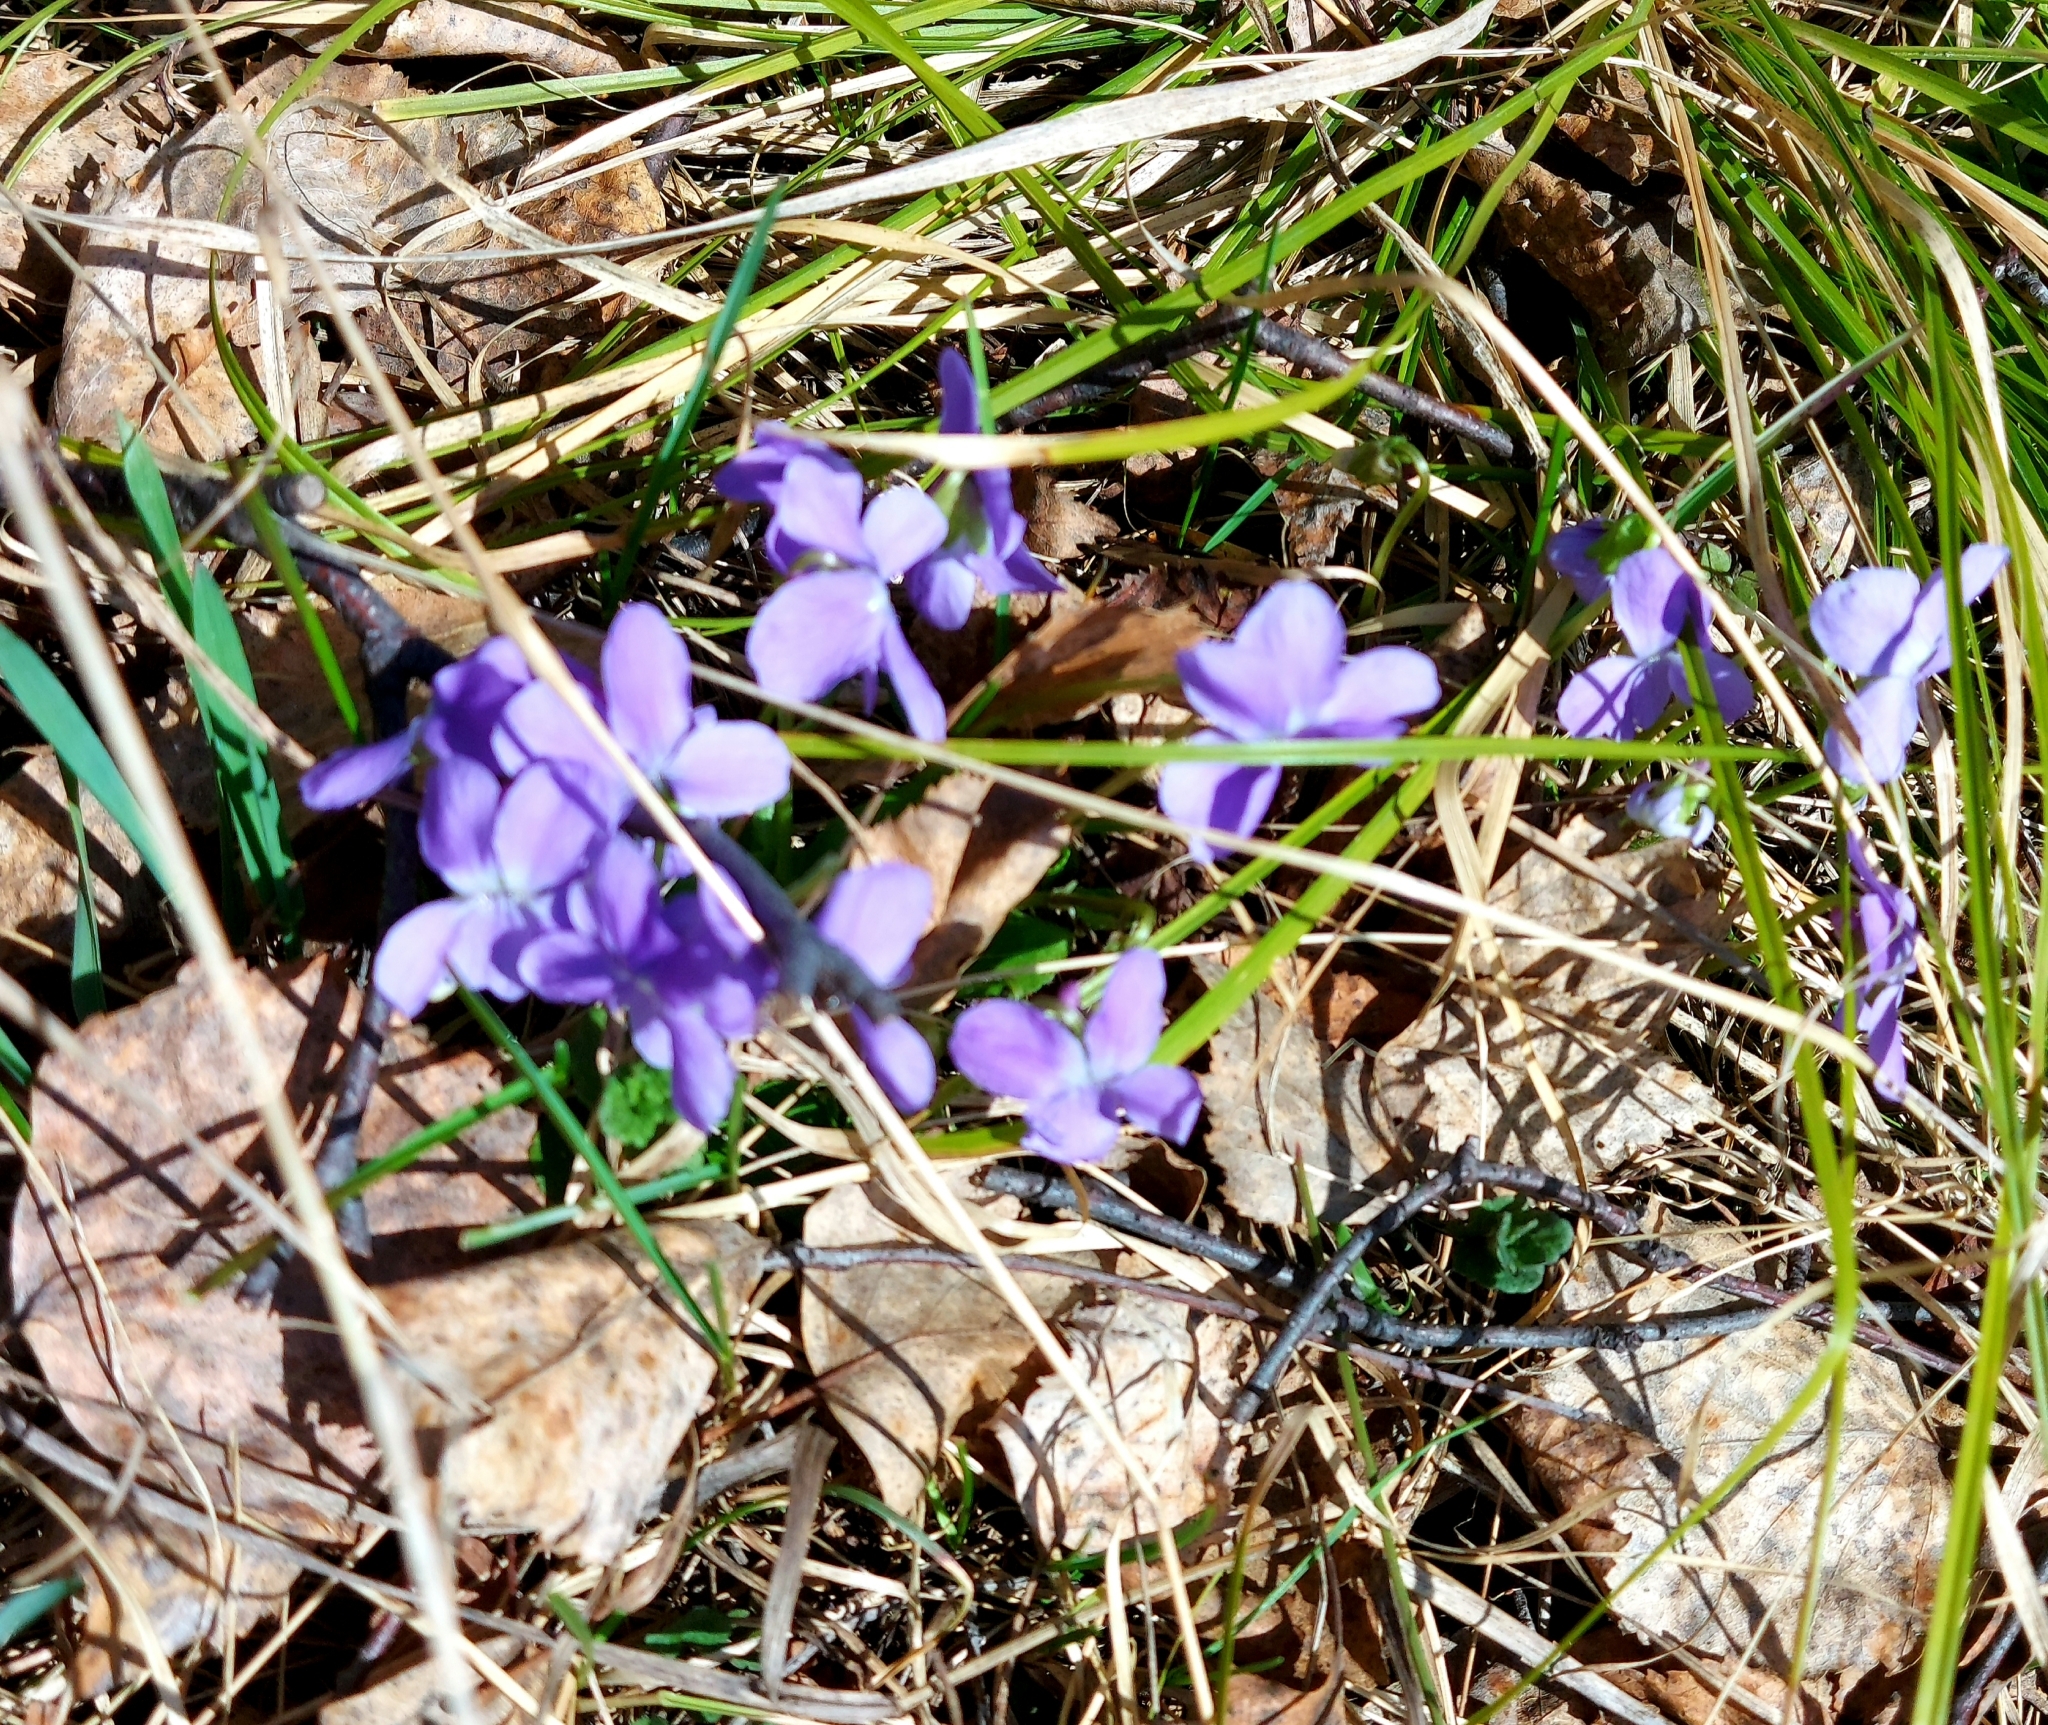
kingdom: Plantae
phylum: Tracheophyta
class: Magnoliopsida
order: Malpighiales
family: Violaceae
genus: Viola
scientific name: Viola hirta
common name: Hairy violet
